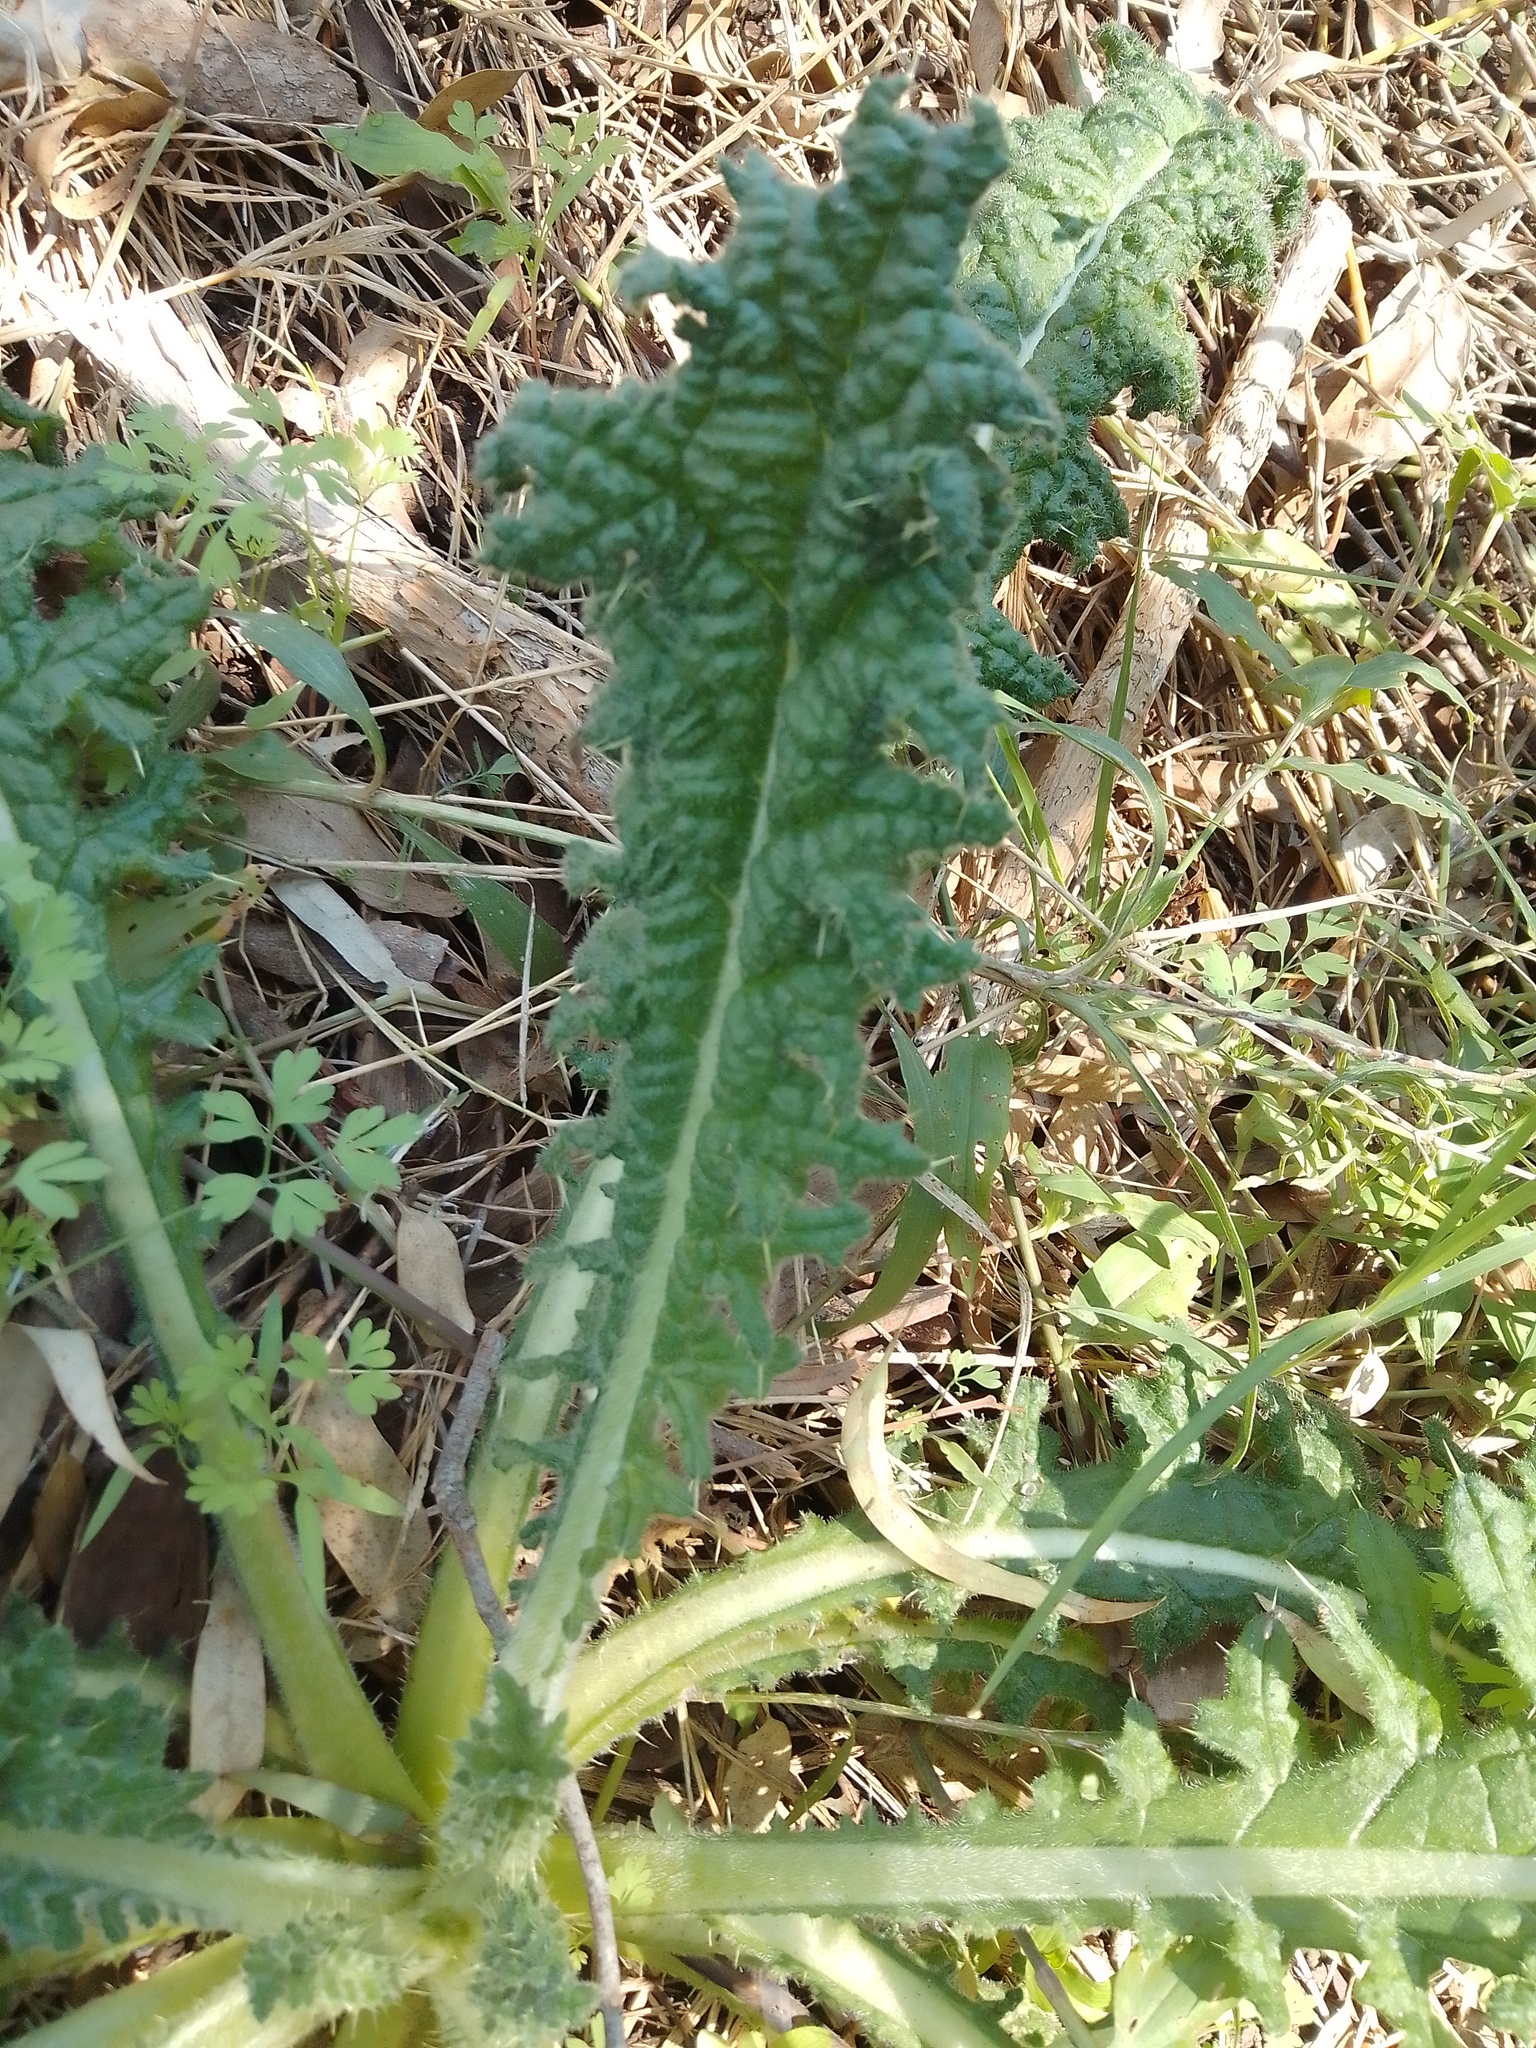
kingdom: Plantae
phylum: Tracheophyta
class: Magnoliopsida
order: Asterales
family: Asteraceae
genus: Cirsium
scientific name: Cirsium vulgare
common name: Bull thistle
